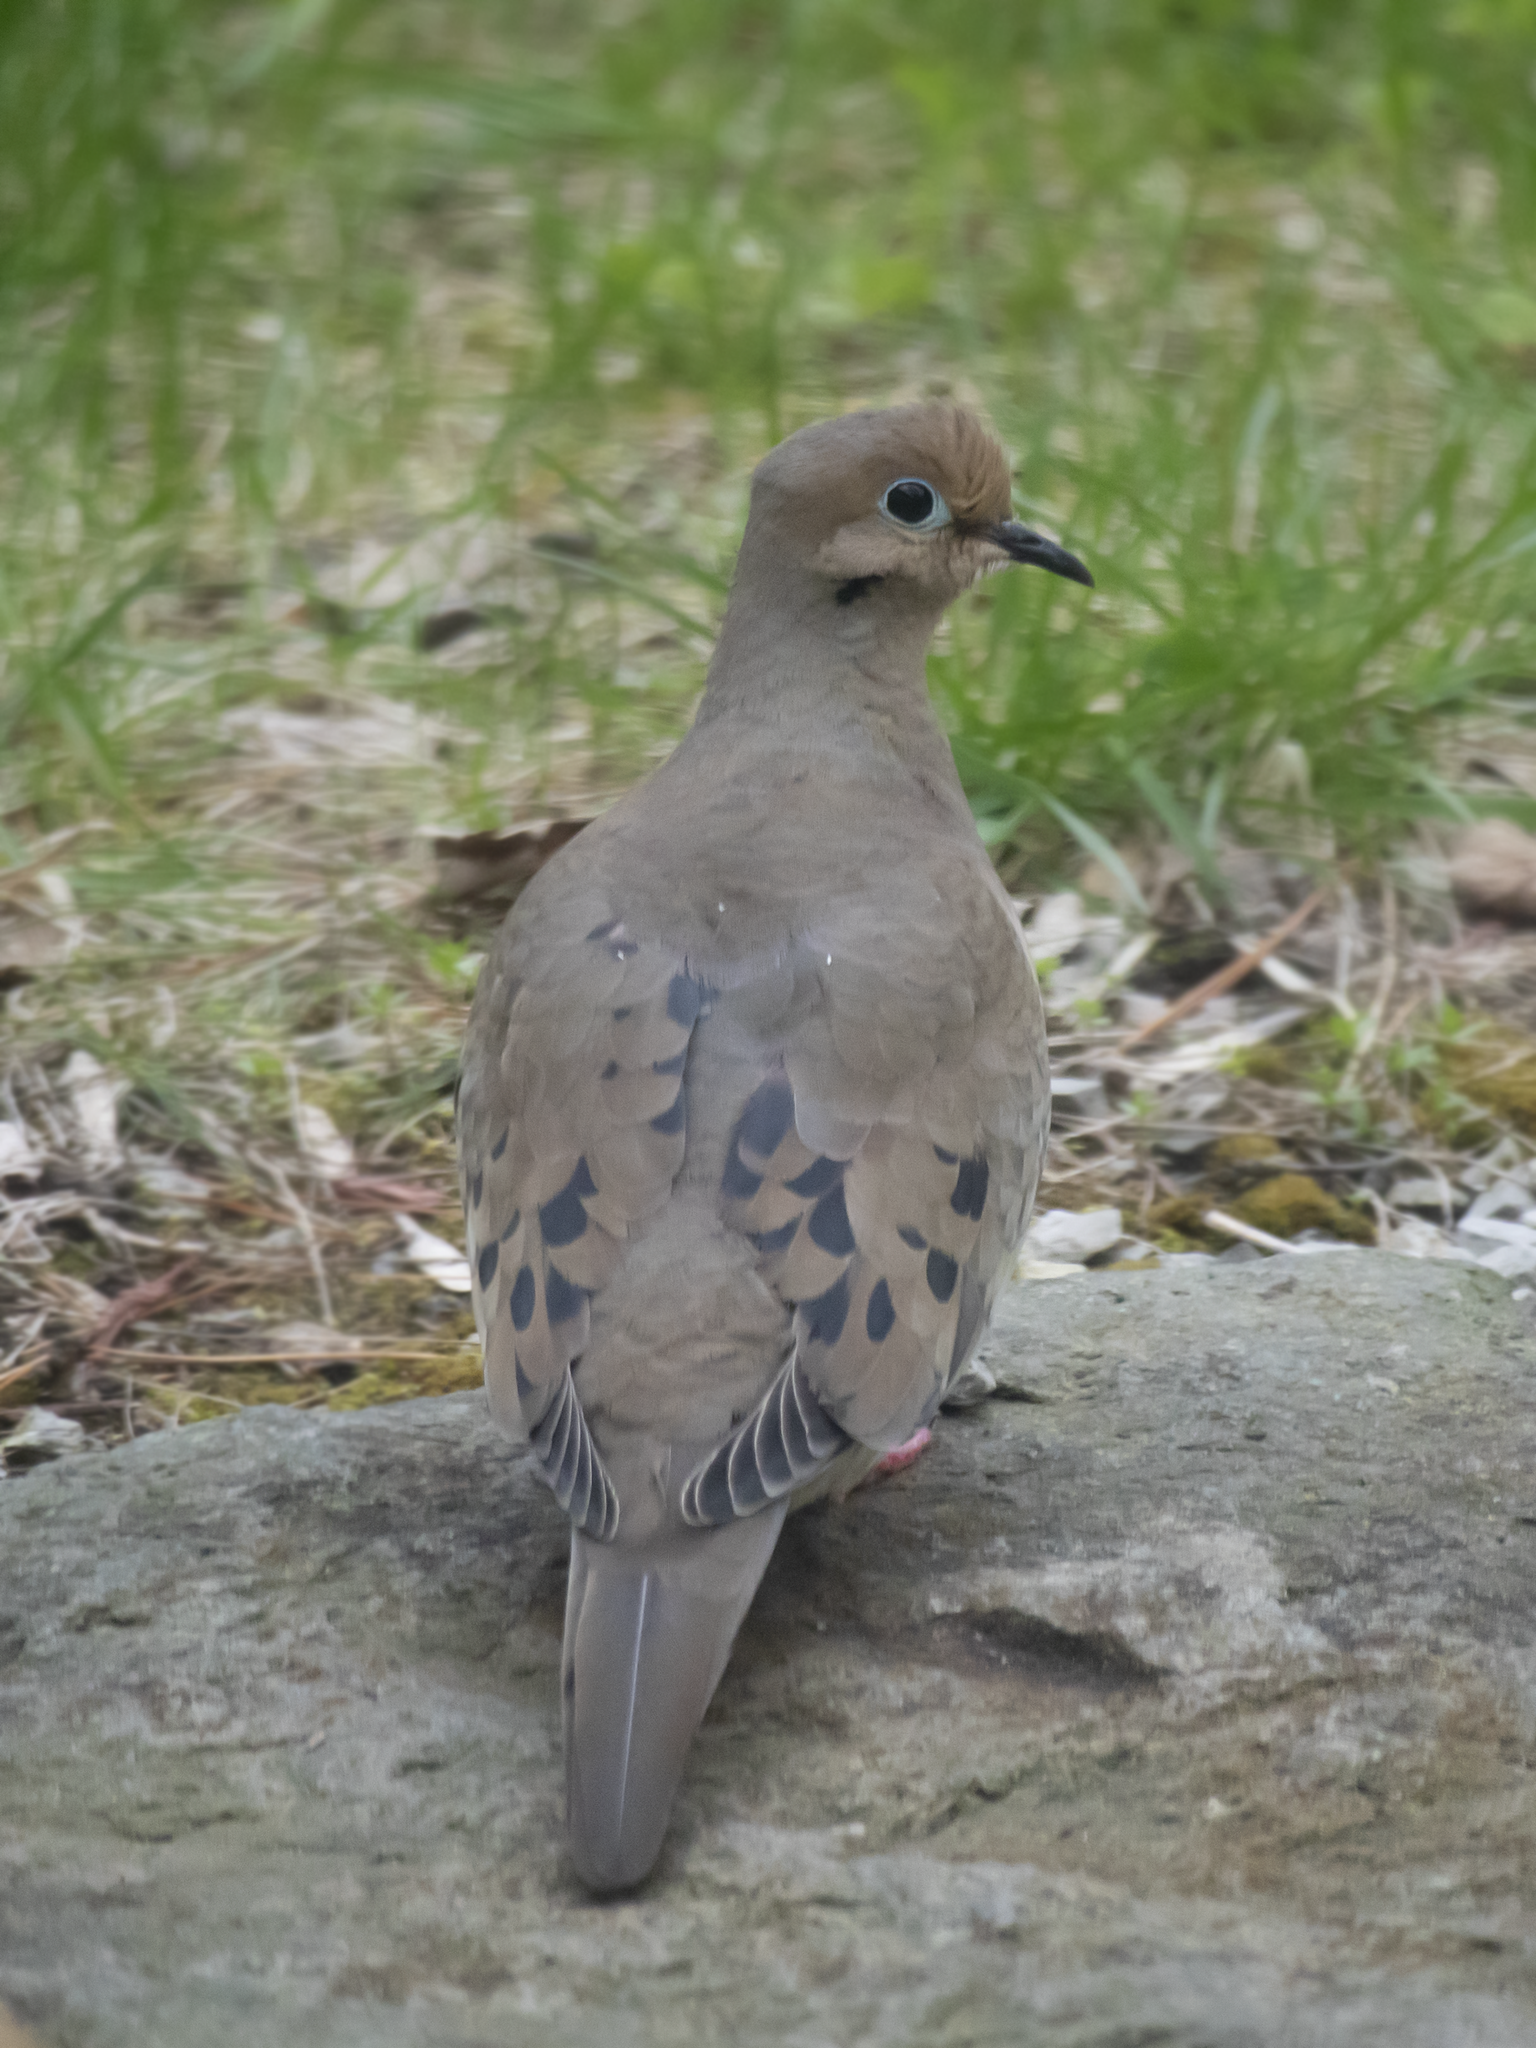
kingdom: Animalia
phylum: Chordata
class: Aves
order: Columbiformes
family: Columbidae
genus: Zenaida
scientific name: Zenaida macroura
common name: Mourning dove
